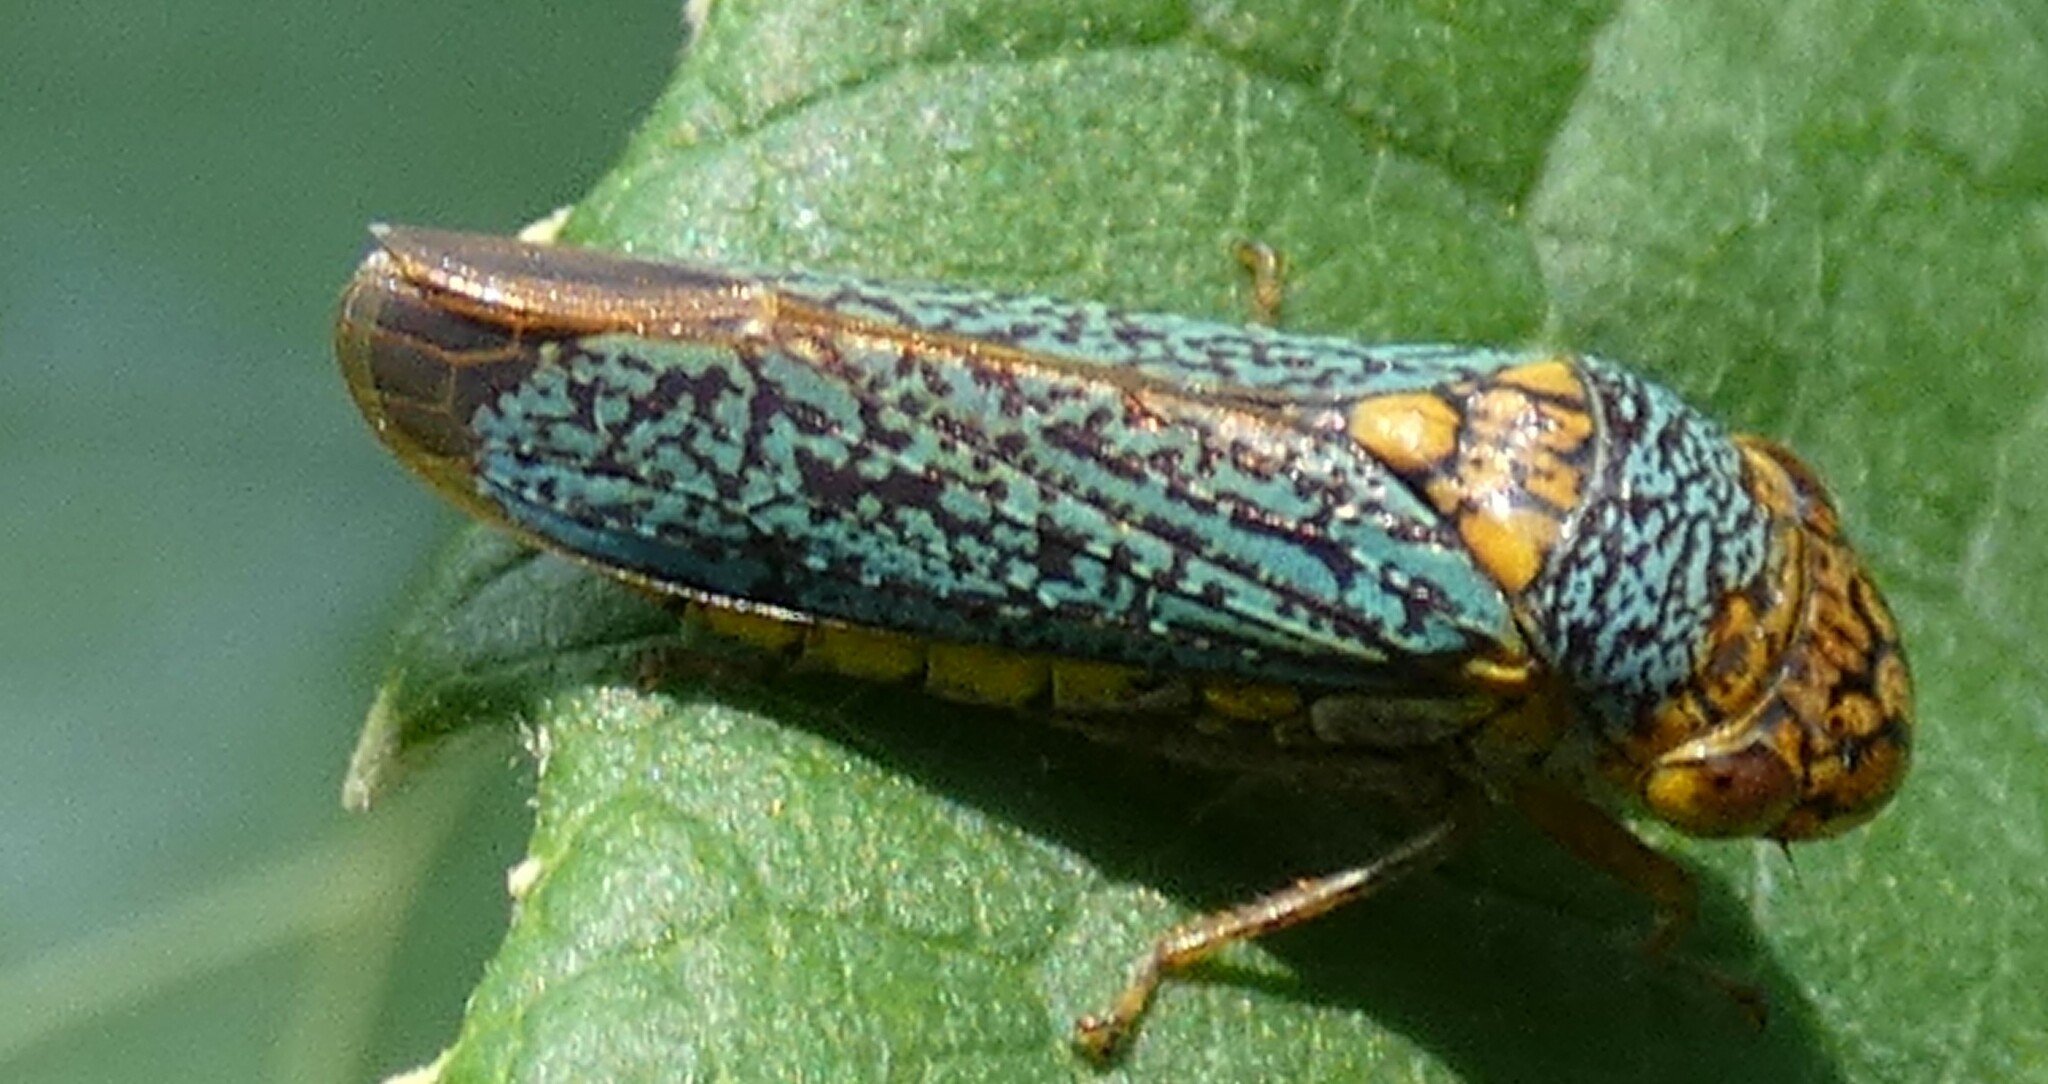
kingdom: Animalia
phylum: Arthropoda
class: Insecta
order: Hemiptera
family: Cicadellidae
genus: Oncometopia
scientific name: Oncometopia orbona
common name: Broad-headed sharpshooter
